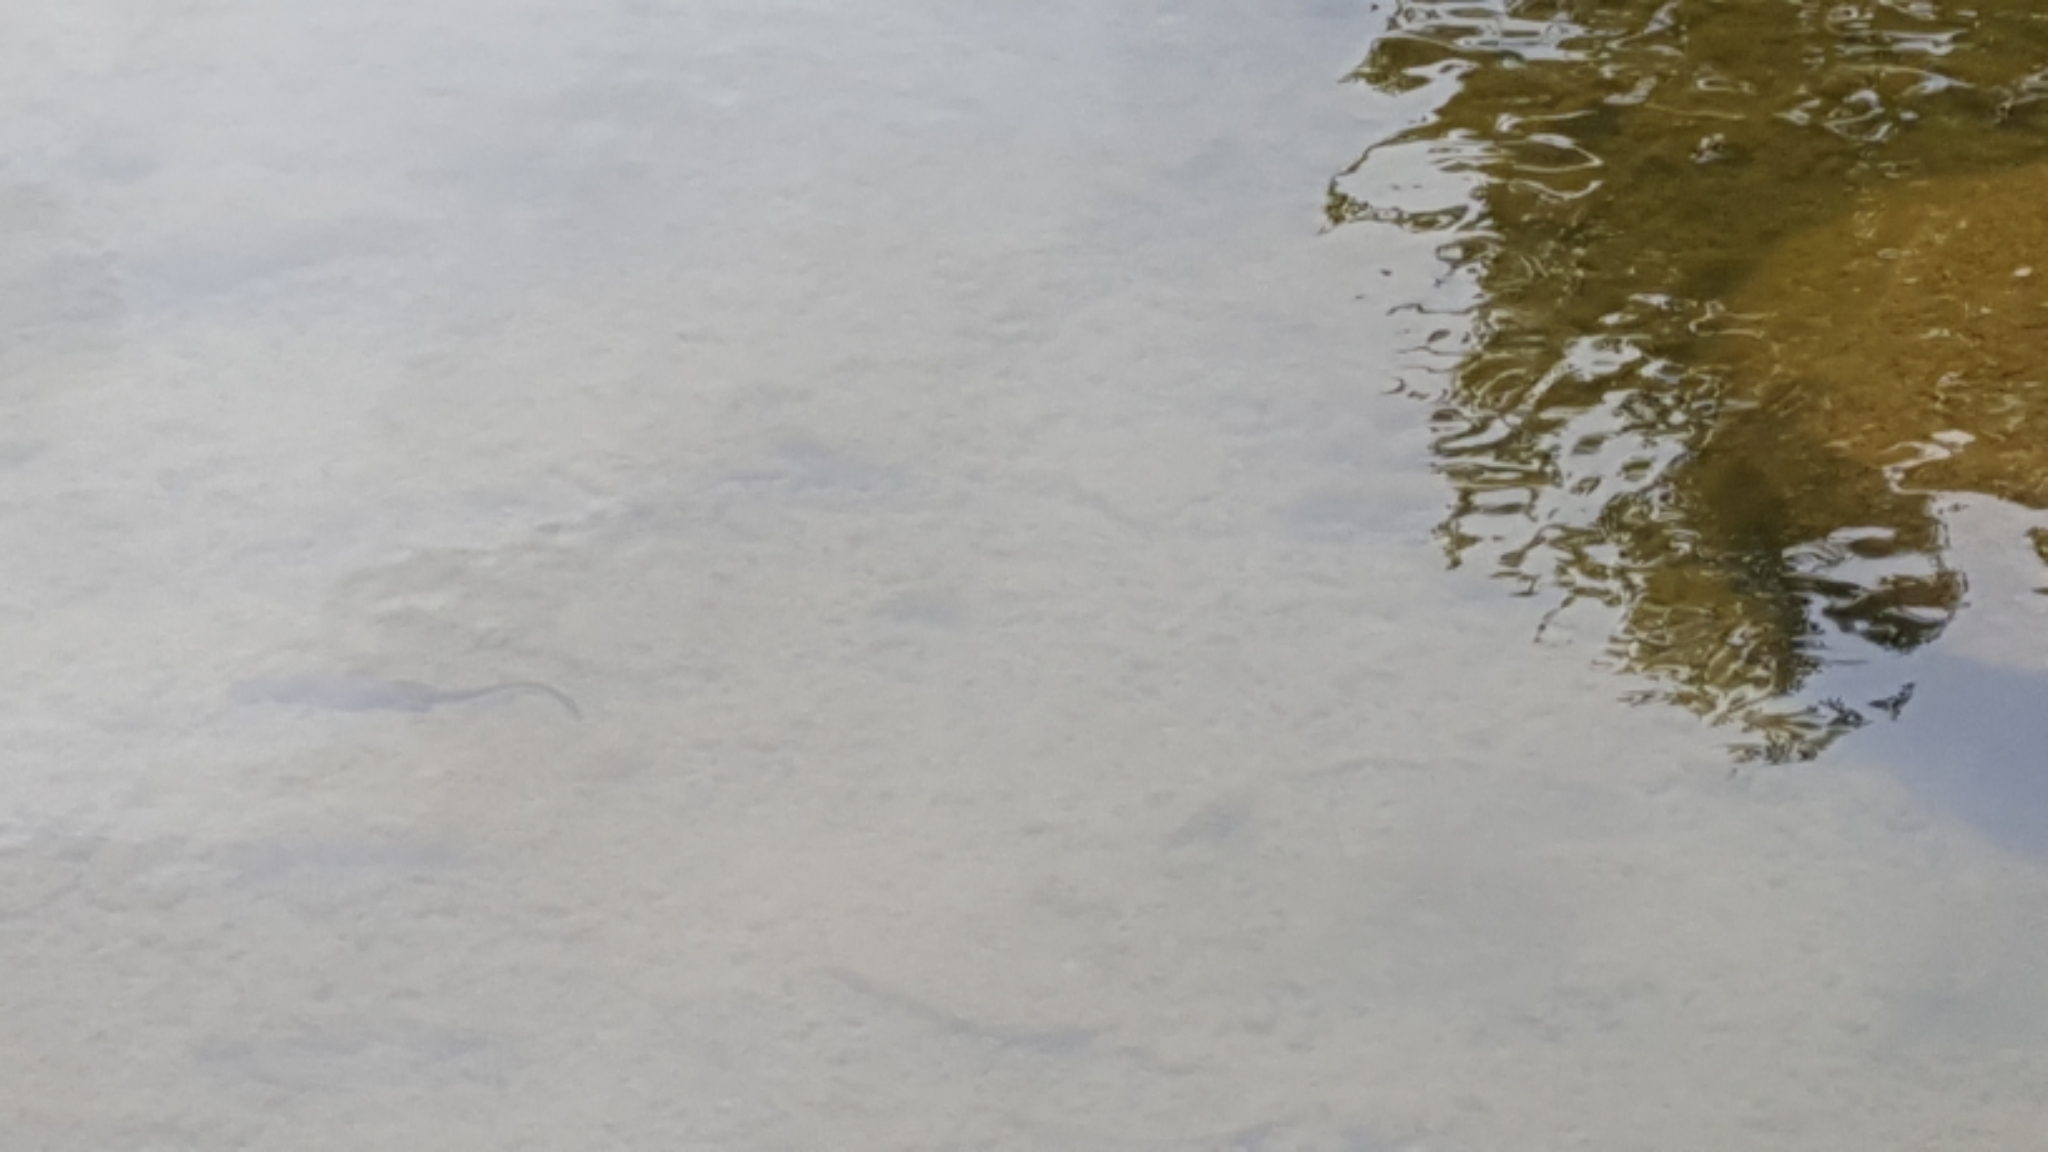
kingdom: Animalia
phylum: Chordata
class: Amphibia
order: Caudata
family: Salamandridae
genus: Taricha
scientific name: Taricha granulosa
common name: Roughskin newt
